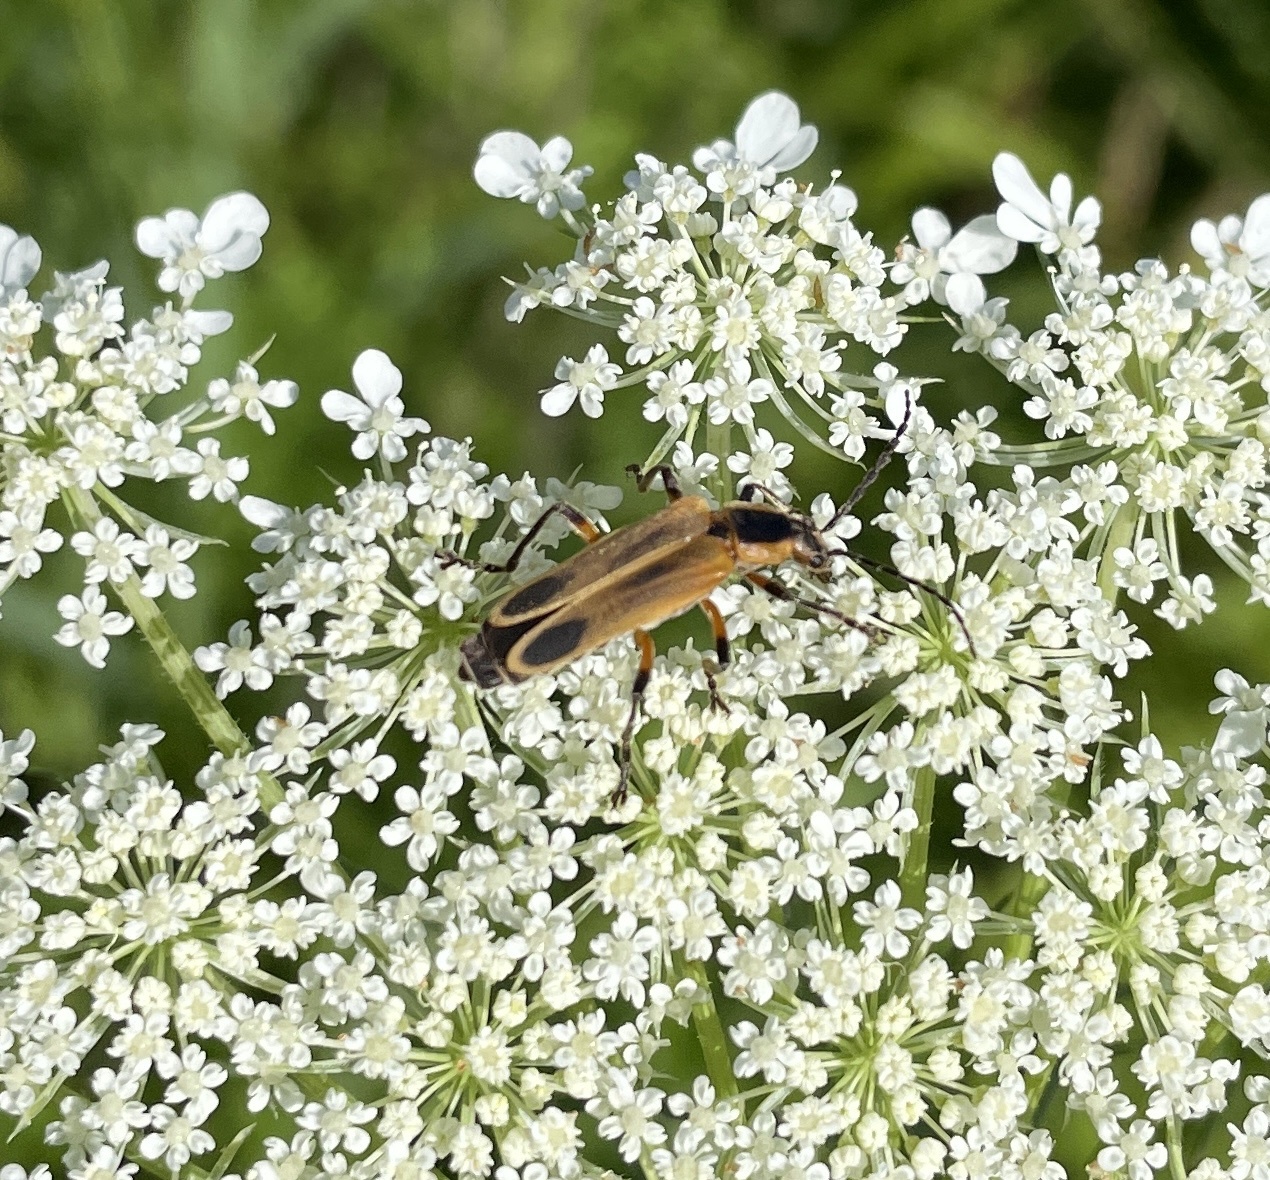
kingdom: Animalia
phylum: Arthropoda
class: Insecta
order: Coleoptera
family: Cantharidae
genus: Chauliognathus
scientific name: Chauliognathus marginatus
